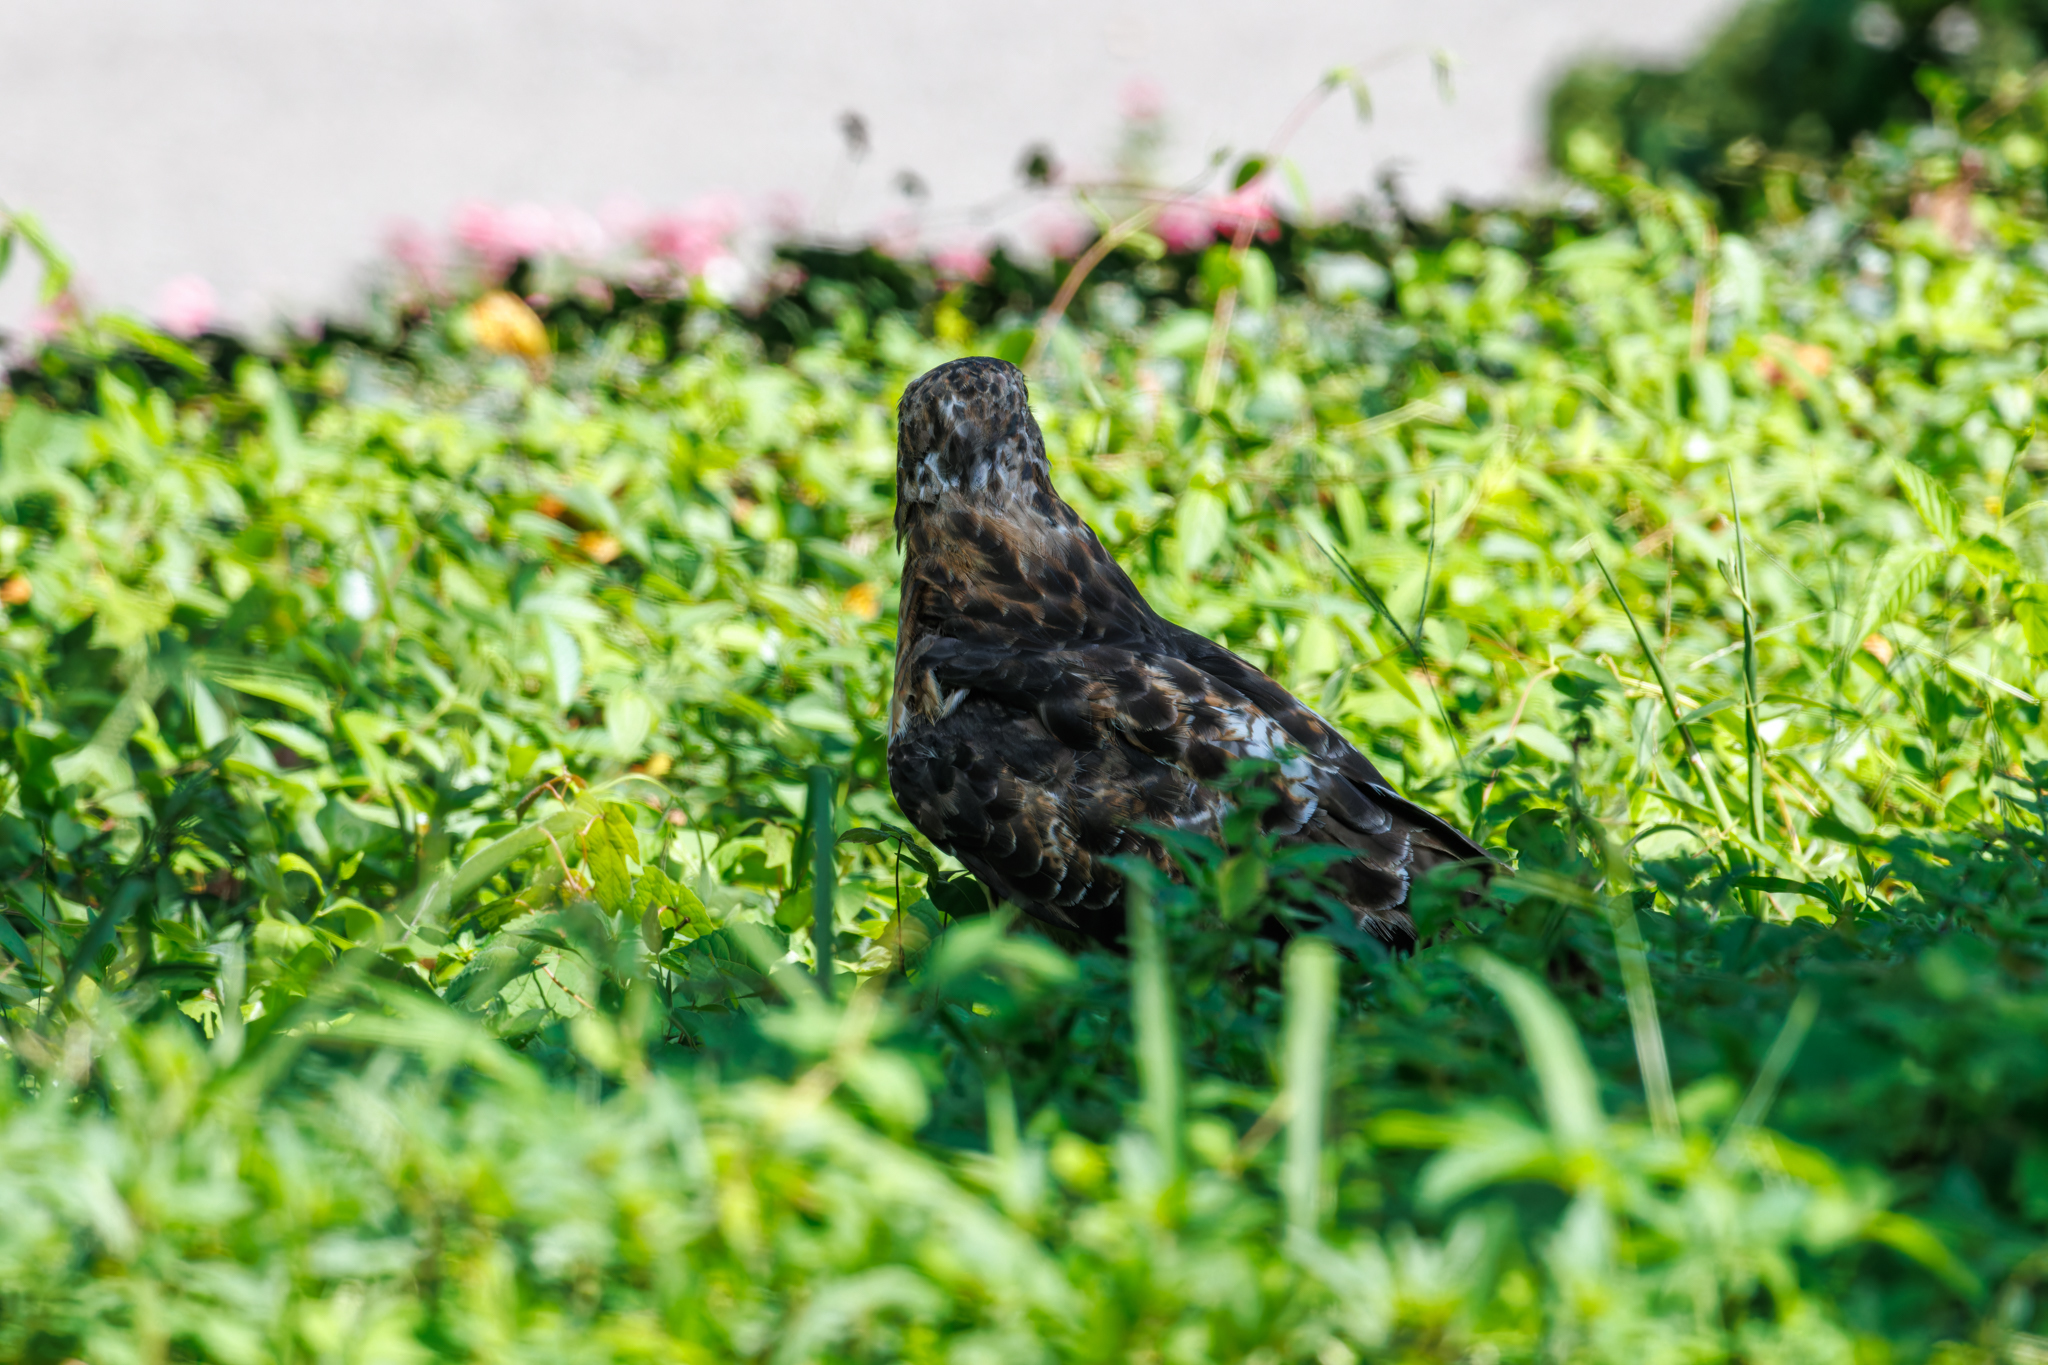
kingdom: Animalia
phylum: Chordata
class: Aves
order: Accipitriformes
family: Accipitridae
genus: Buteo
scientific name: Buteo jamaicensis
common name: Red-tailed hawk
